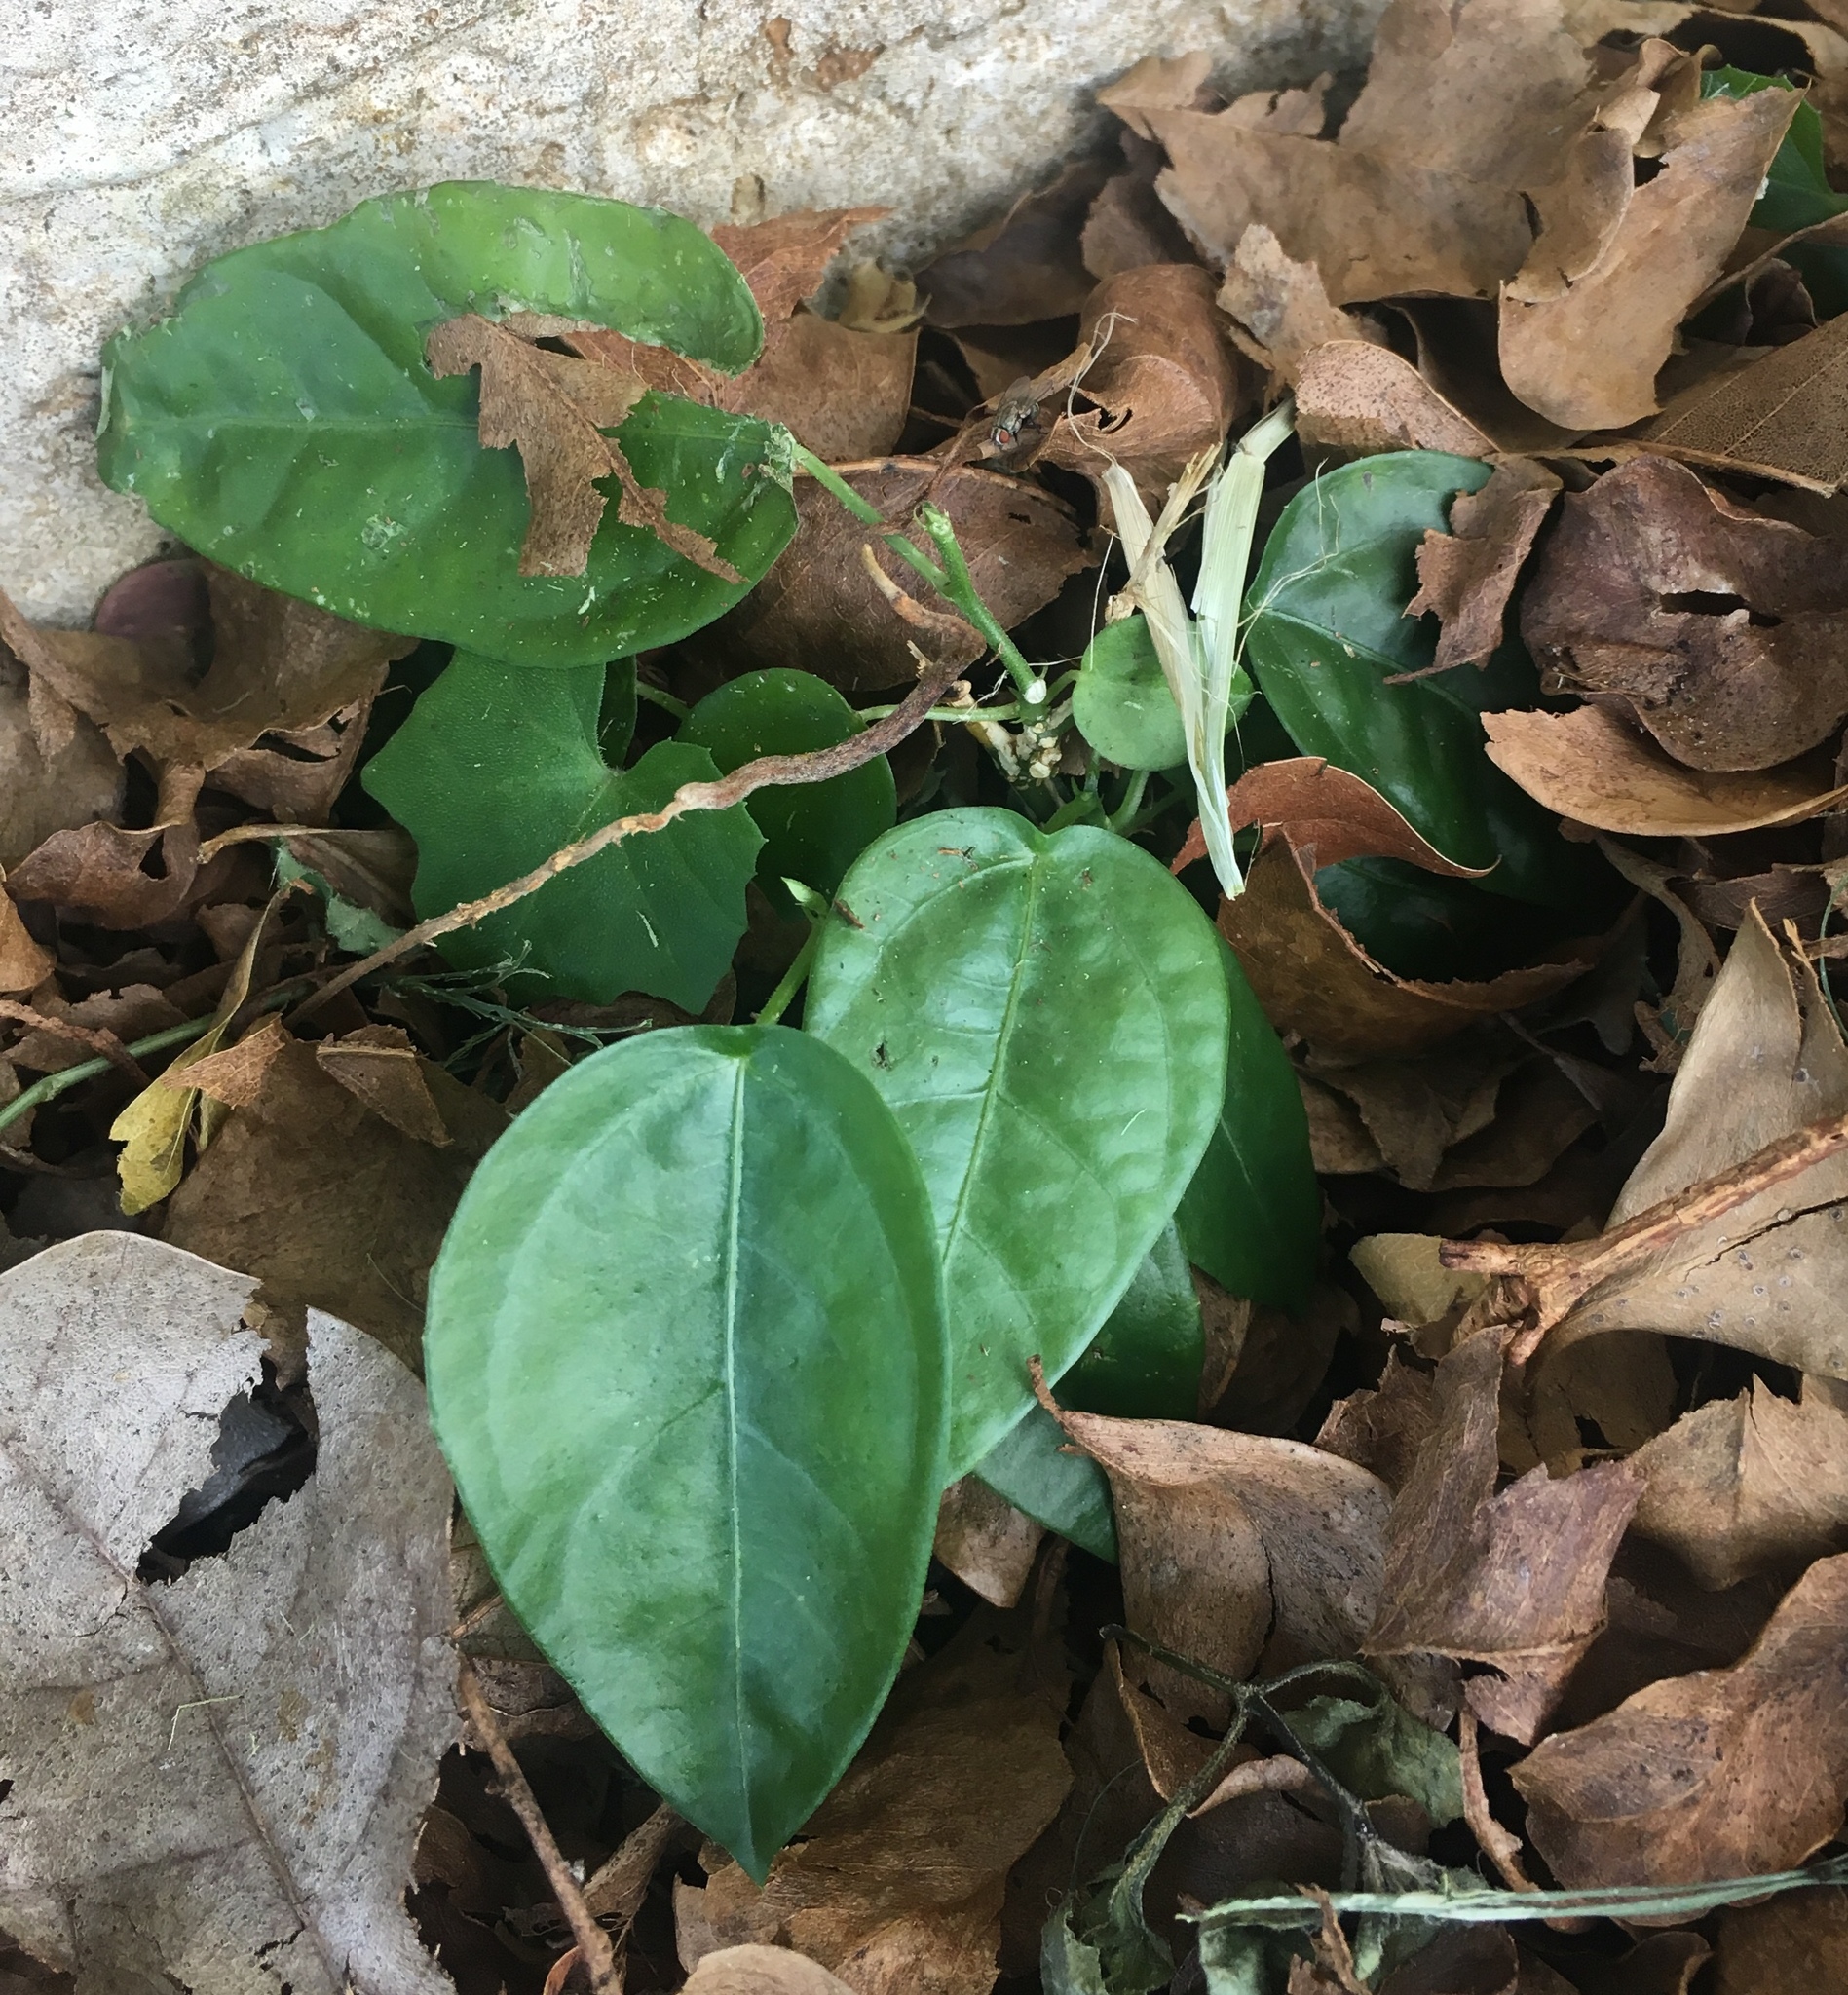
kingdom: Plantae
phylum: Tracheophyta
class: Magnoliopsida
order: Malpighiales
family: Passifloraceae
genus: Passiflora
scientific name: Passiflora pallida
